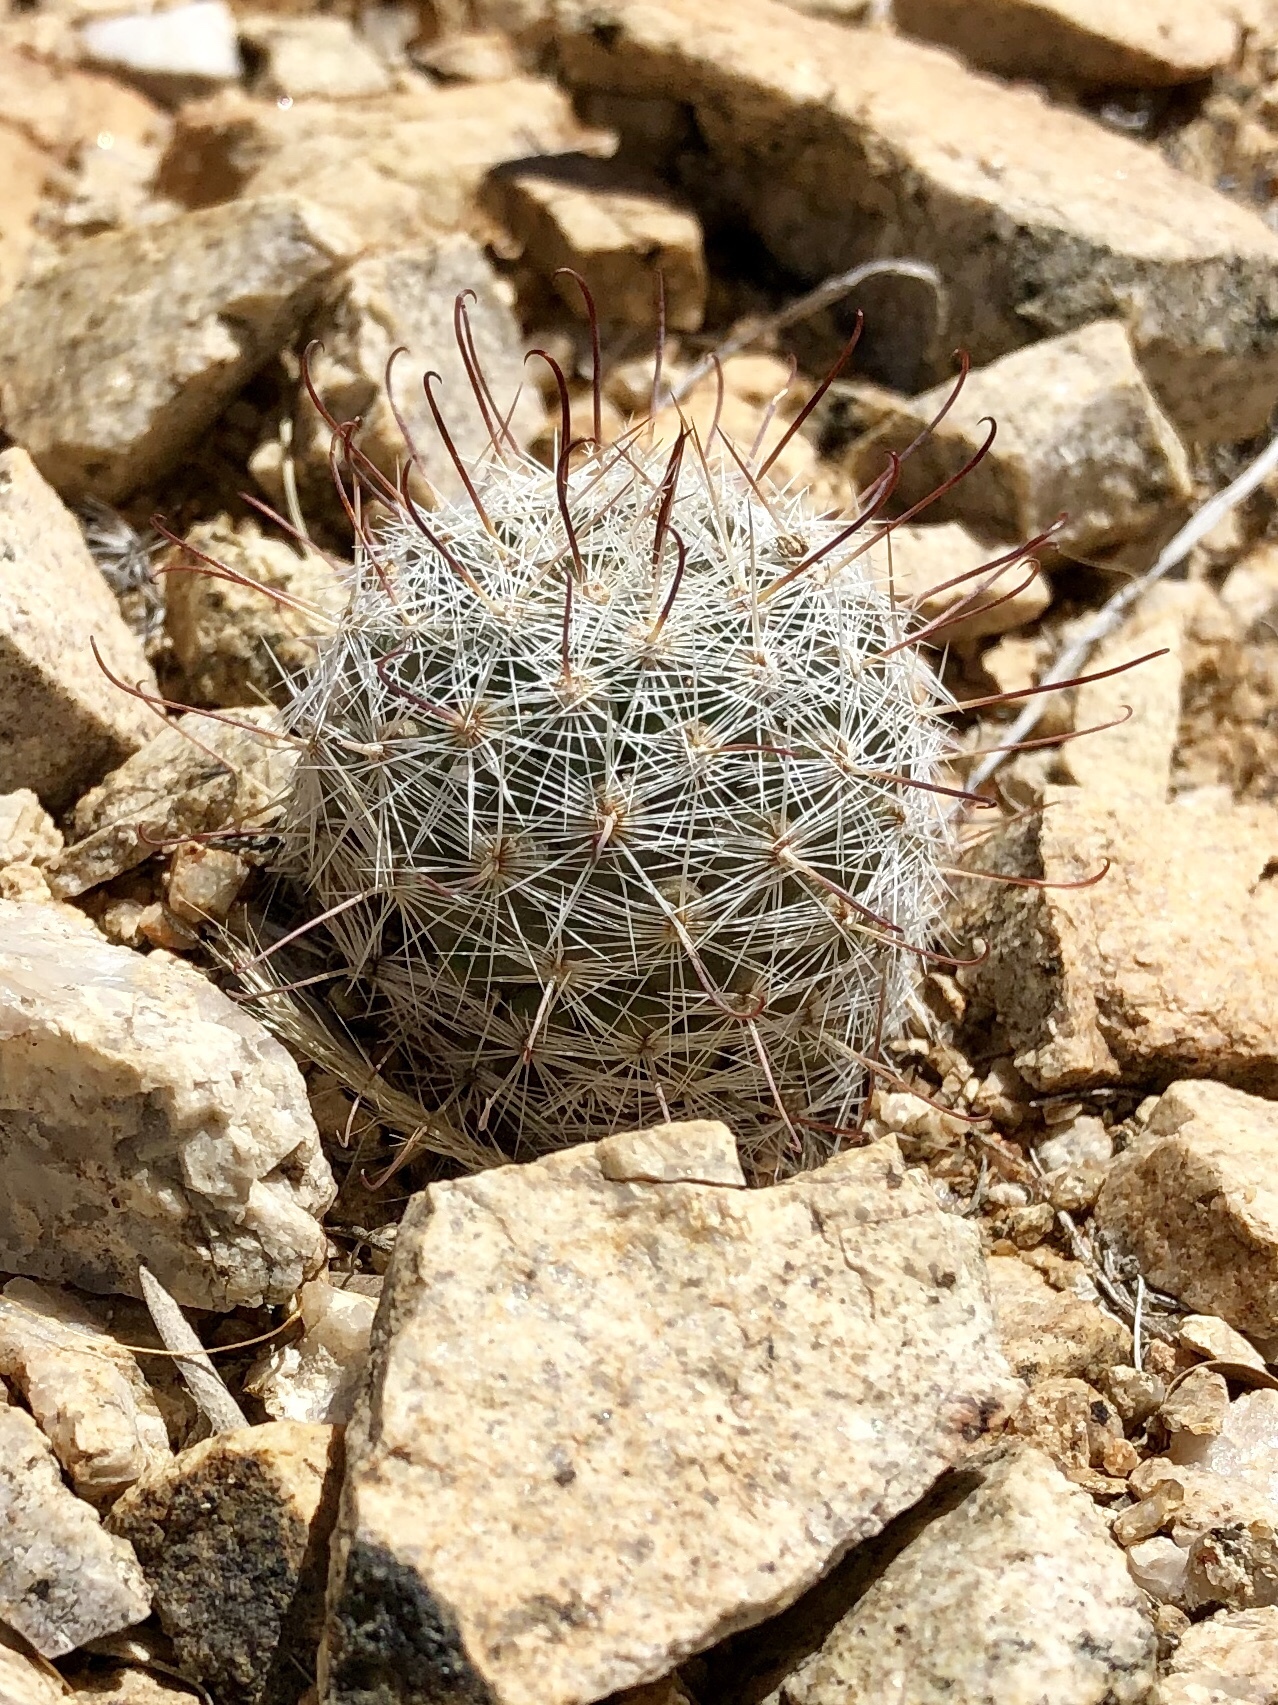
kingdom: Plantae
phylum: Tracheophyta
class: Magnoliopsida
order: Caryophyllales
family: Cactaceae
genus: Cochemiea
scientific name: Cochemiea grahamii
